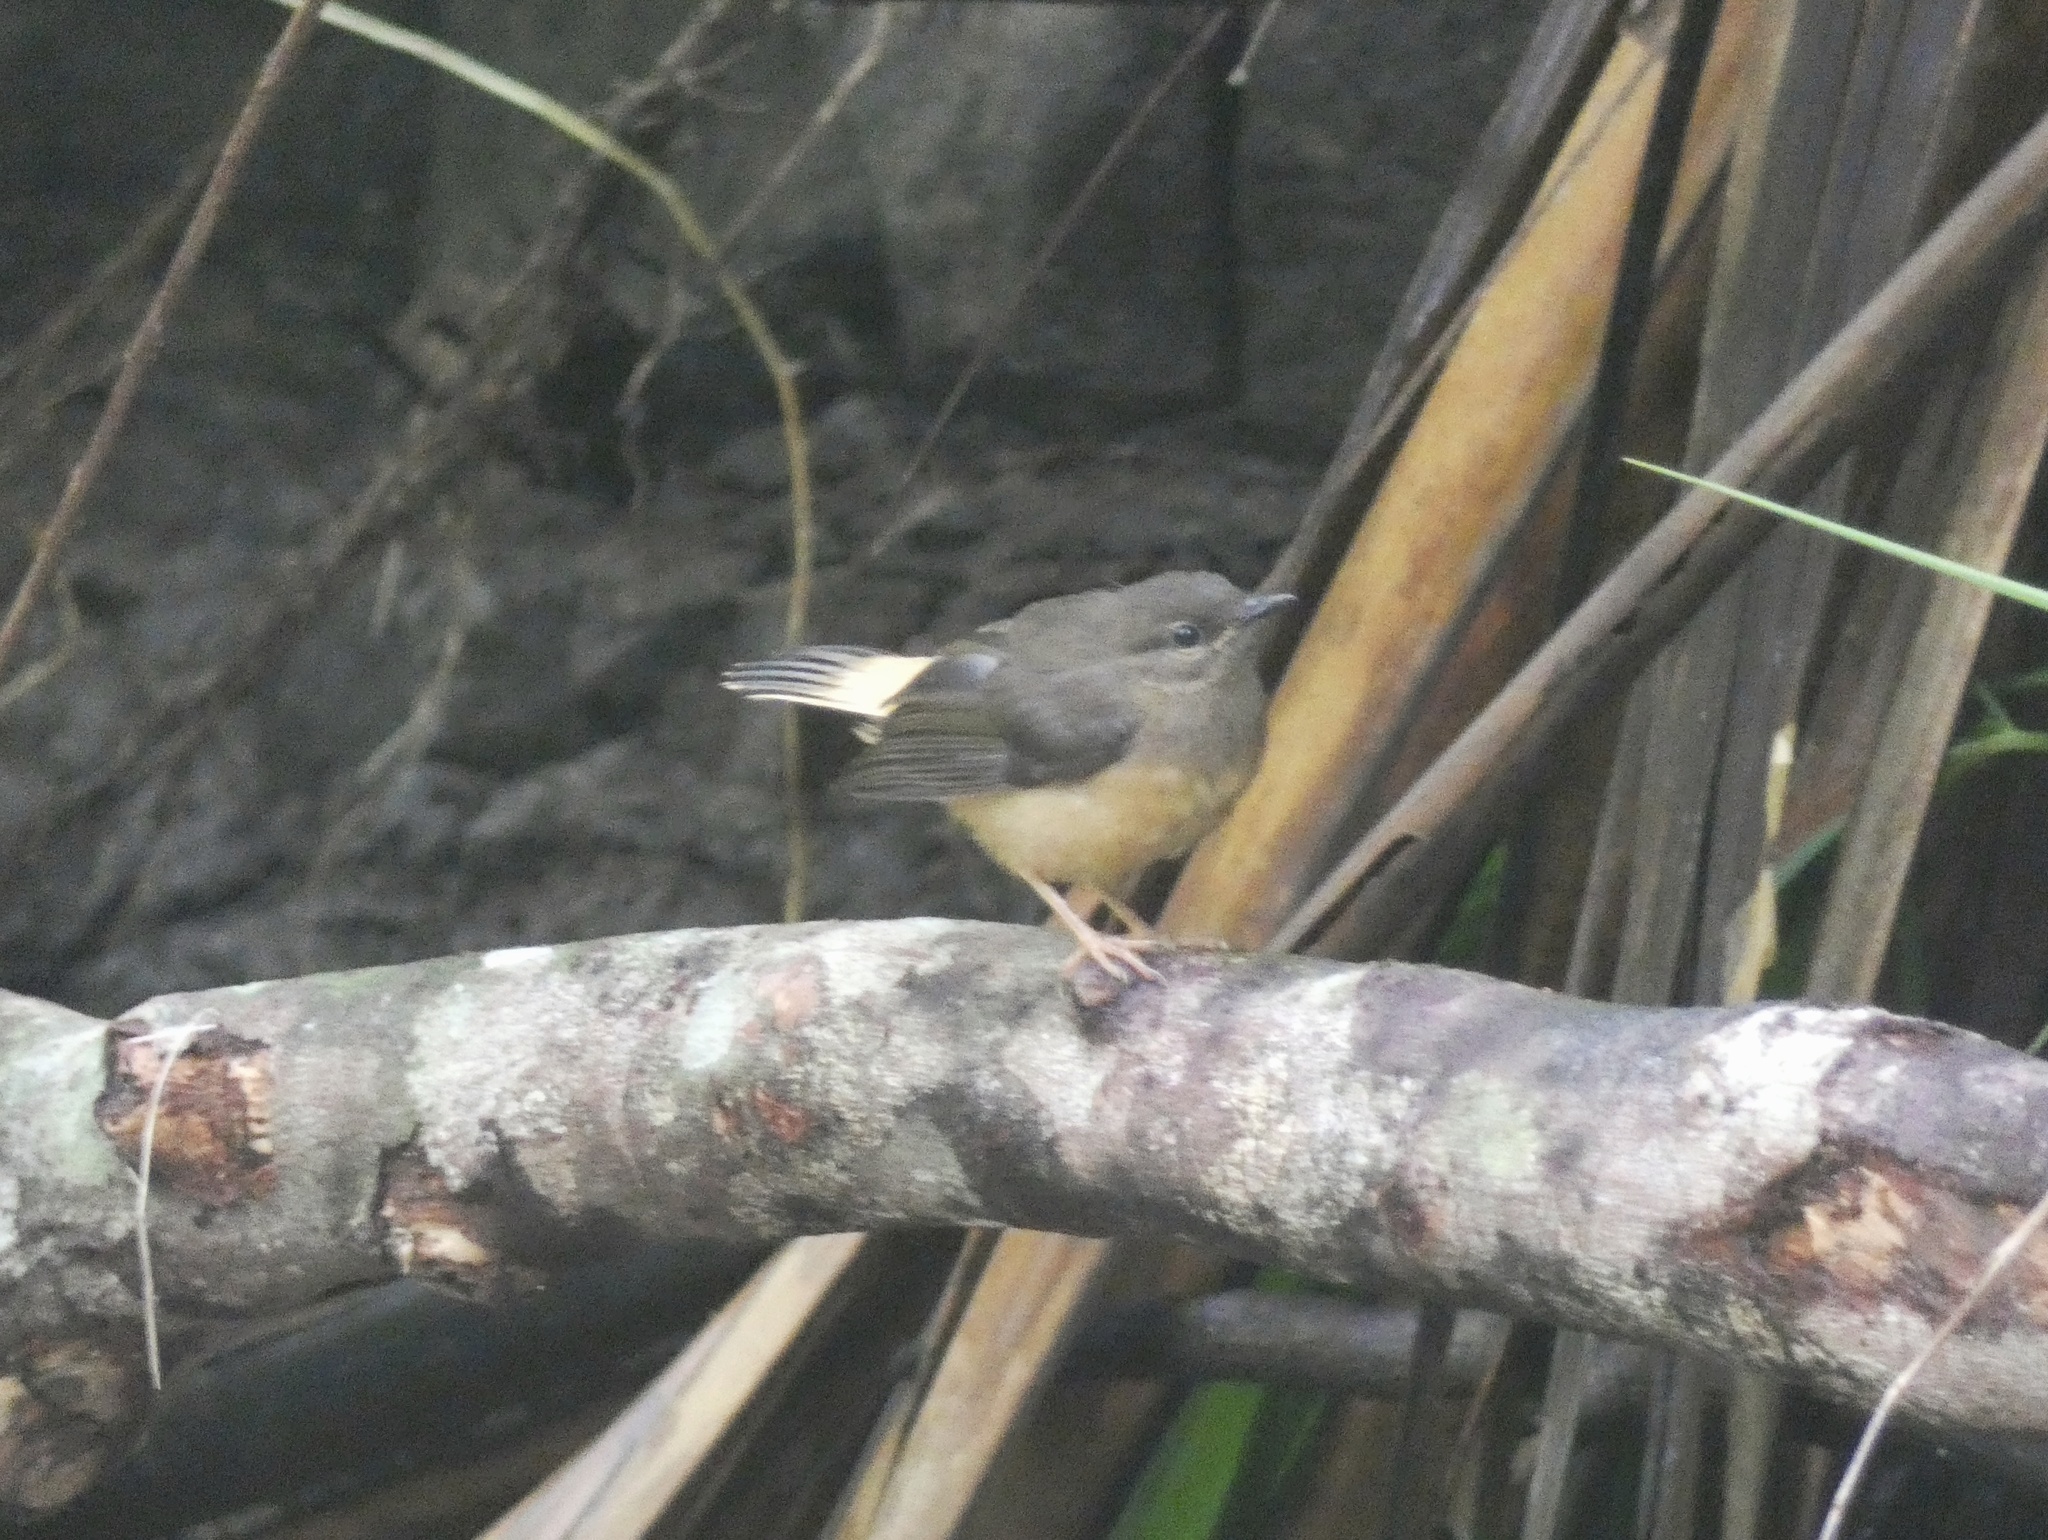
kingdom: Animalia
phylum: Chordata
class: Aves
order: Passeriformes
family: Parulidae
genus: Myiothlypis
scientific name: Myiothlypis fulvicauda
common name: Buff-rumped warbler
